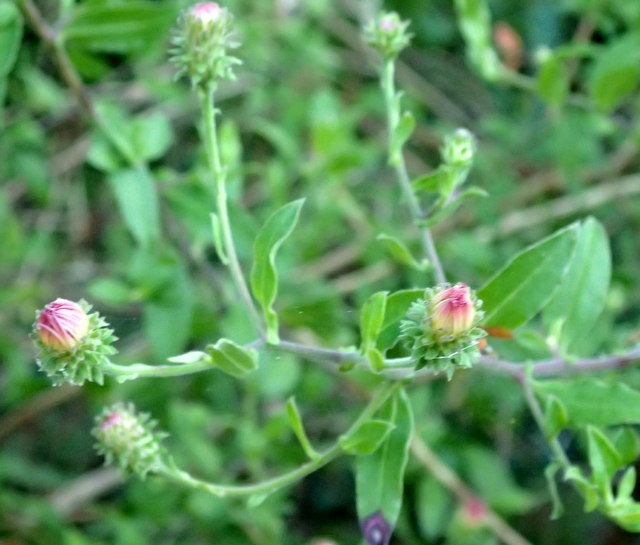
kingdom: Plantae
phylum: Tracheophyta
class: Magnoliopsida
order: Asterales
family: Asteraceae
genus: Ampelaster
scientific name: Ampelaster carolinianus
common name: Climbing aster
